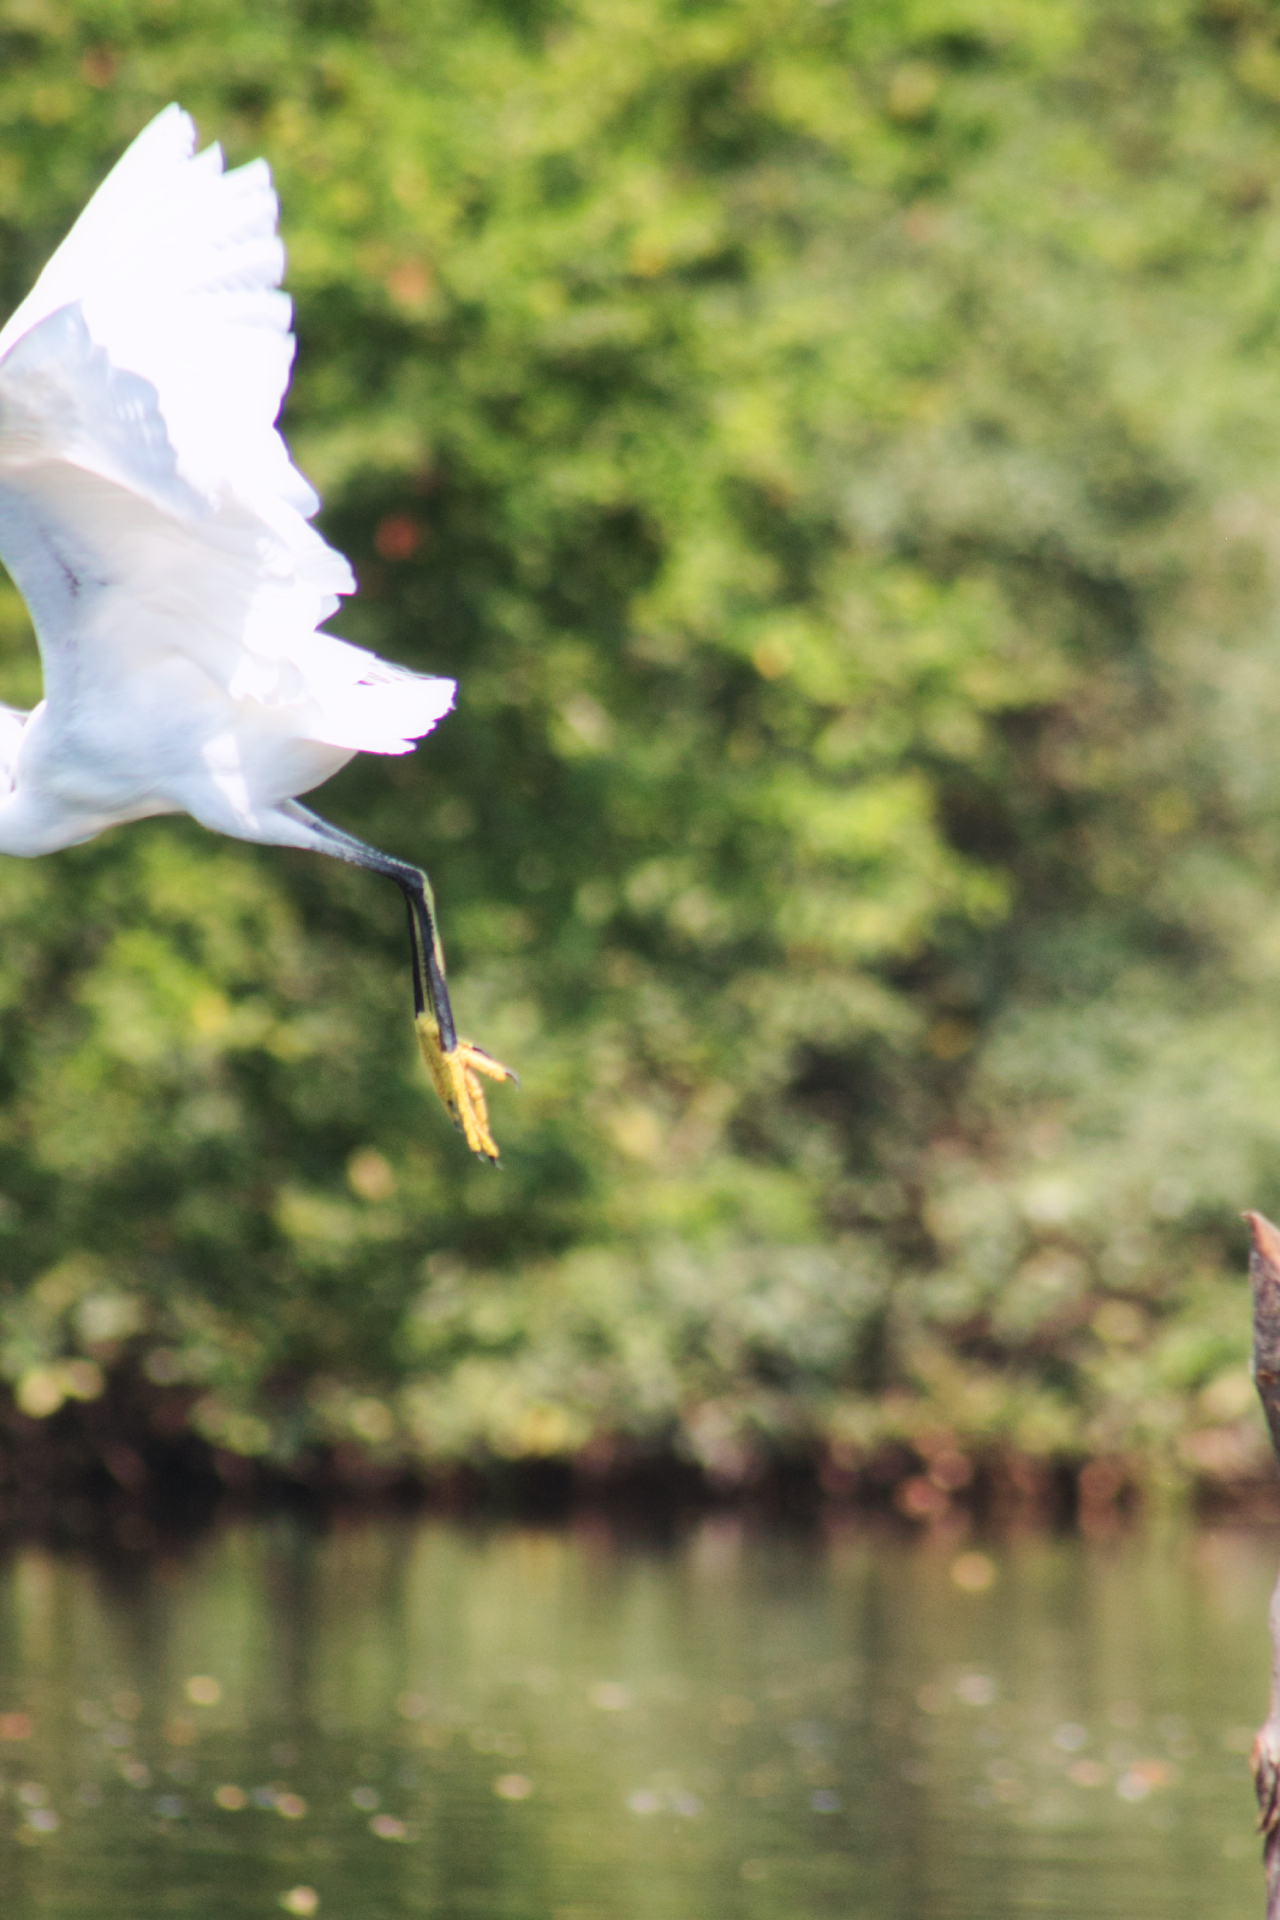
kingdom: Animalia
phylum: Chordata
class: Aves
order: Pelecaniformes
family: Ardeidae
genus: Egretta
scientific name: Egretta thula
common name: Snowy egret
